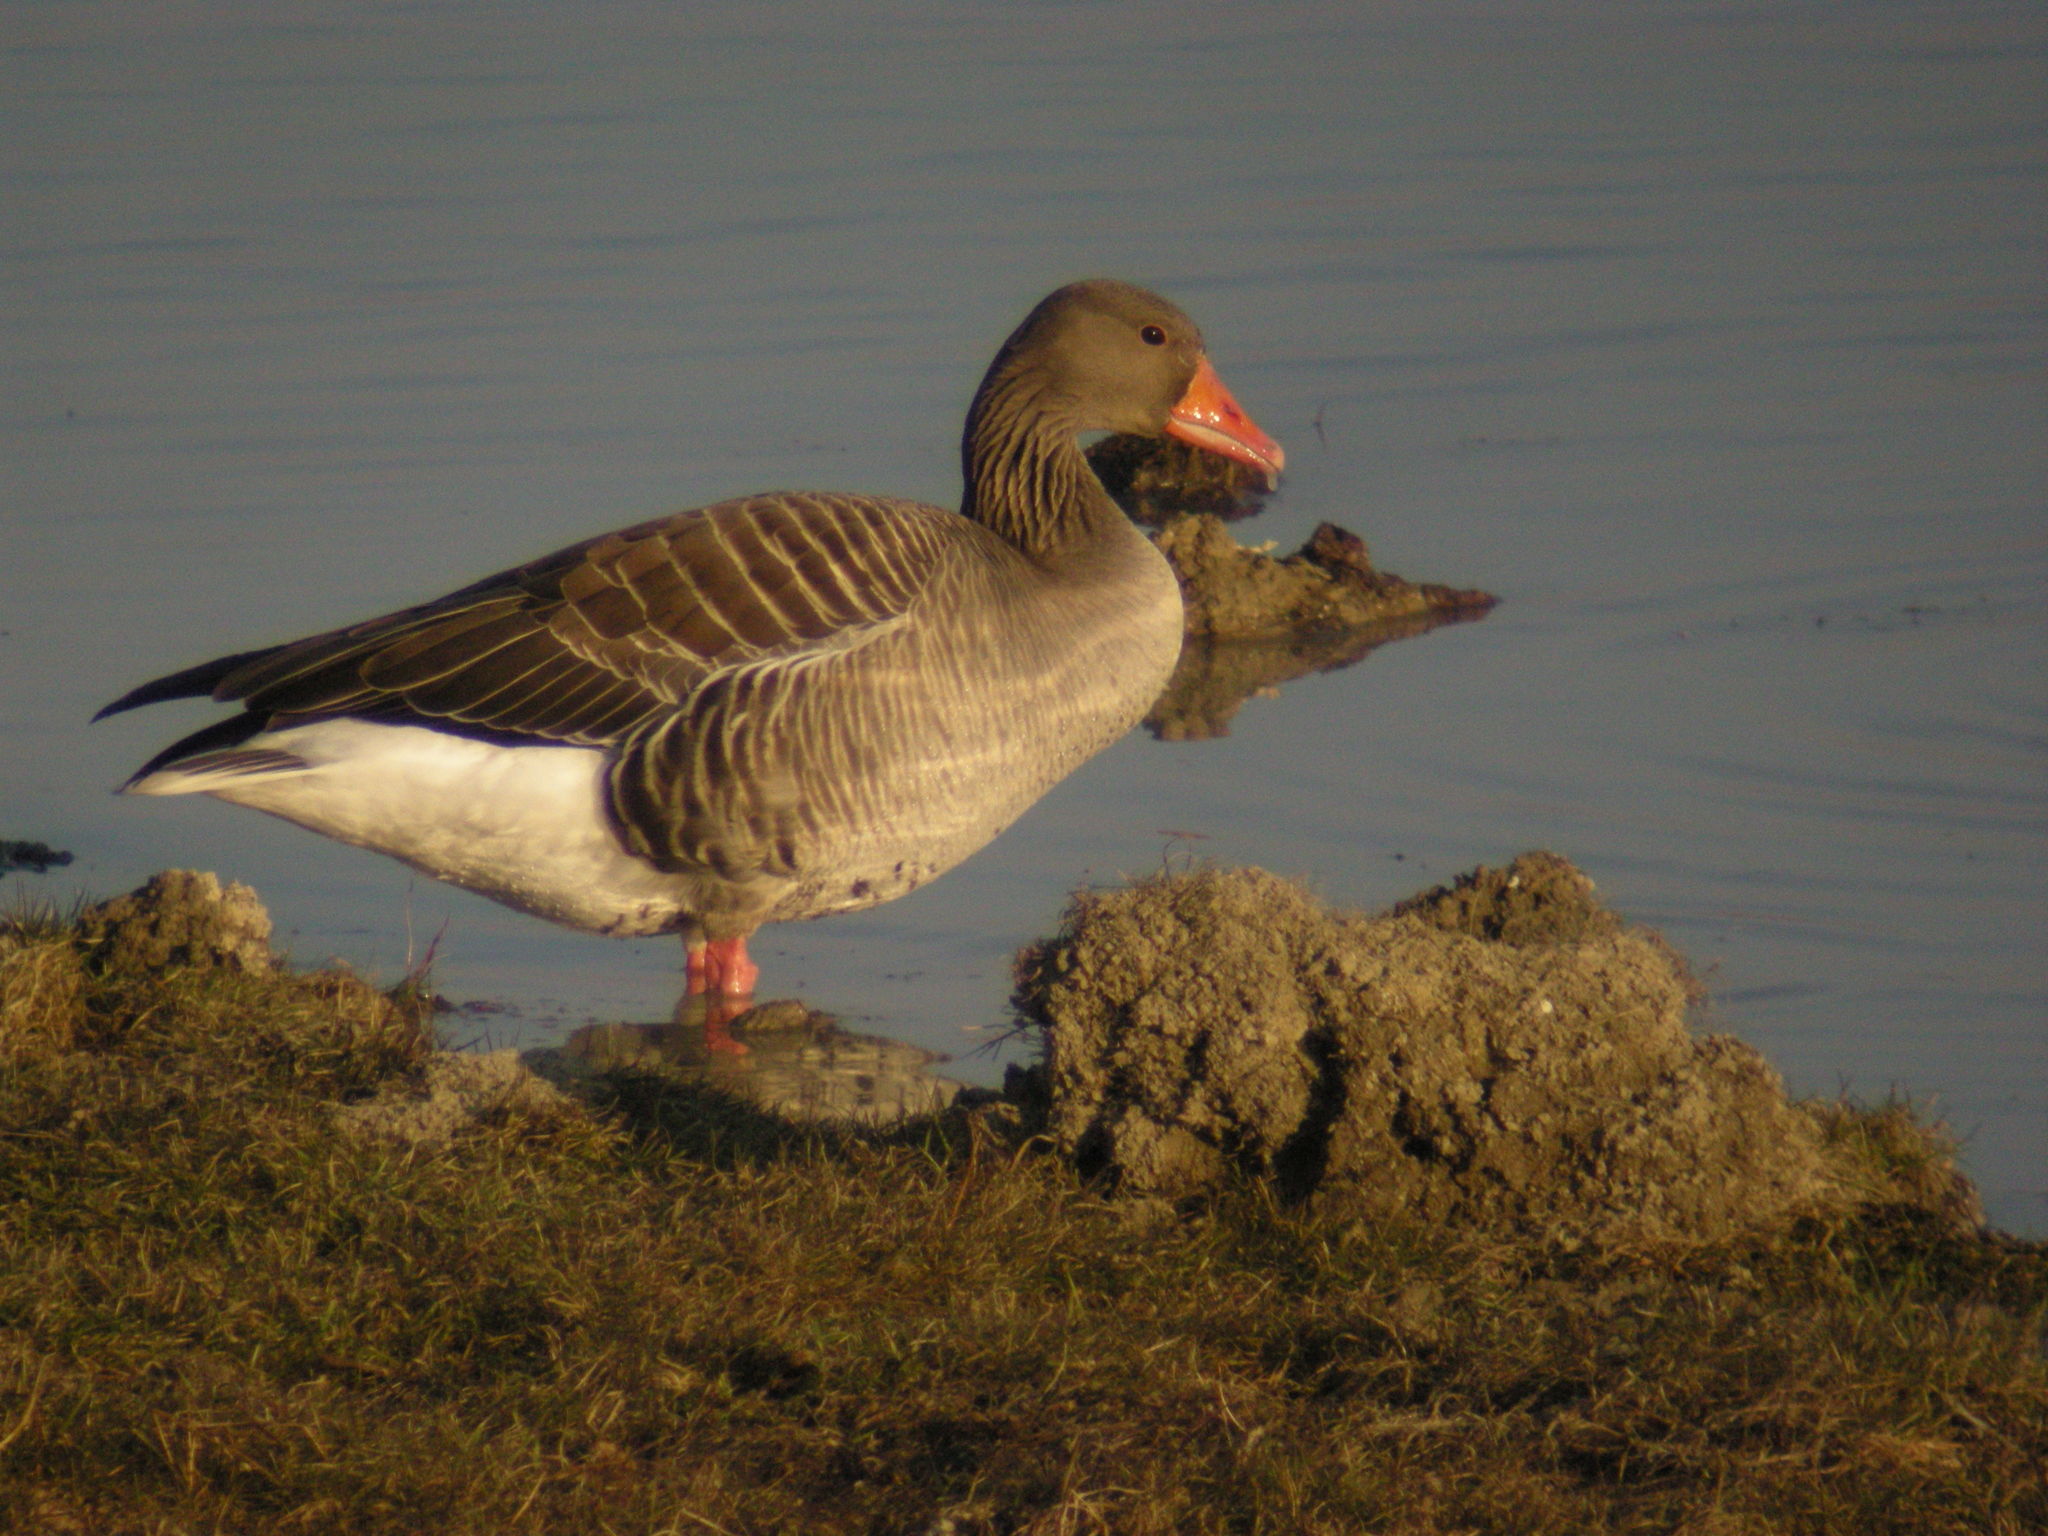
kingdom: Animalia
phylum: Chordata
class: Aves
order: Anseriformes
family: Anatidae
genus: Anser
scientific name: Anser anser
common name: Greylag goose
